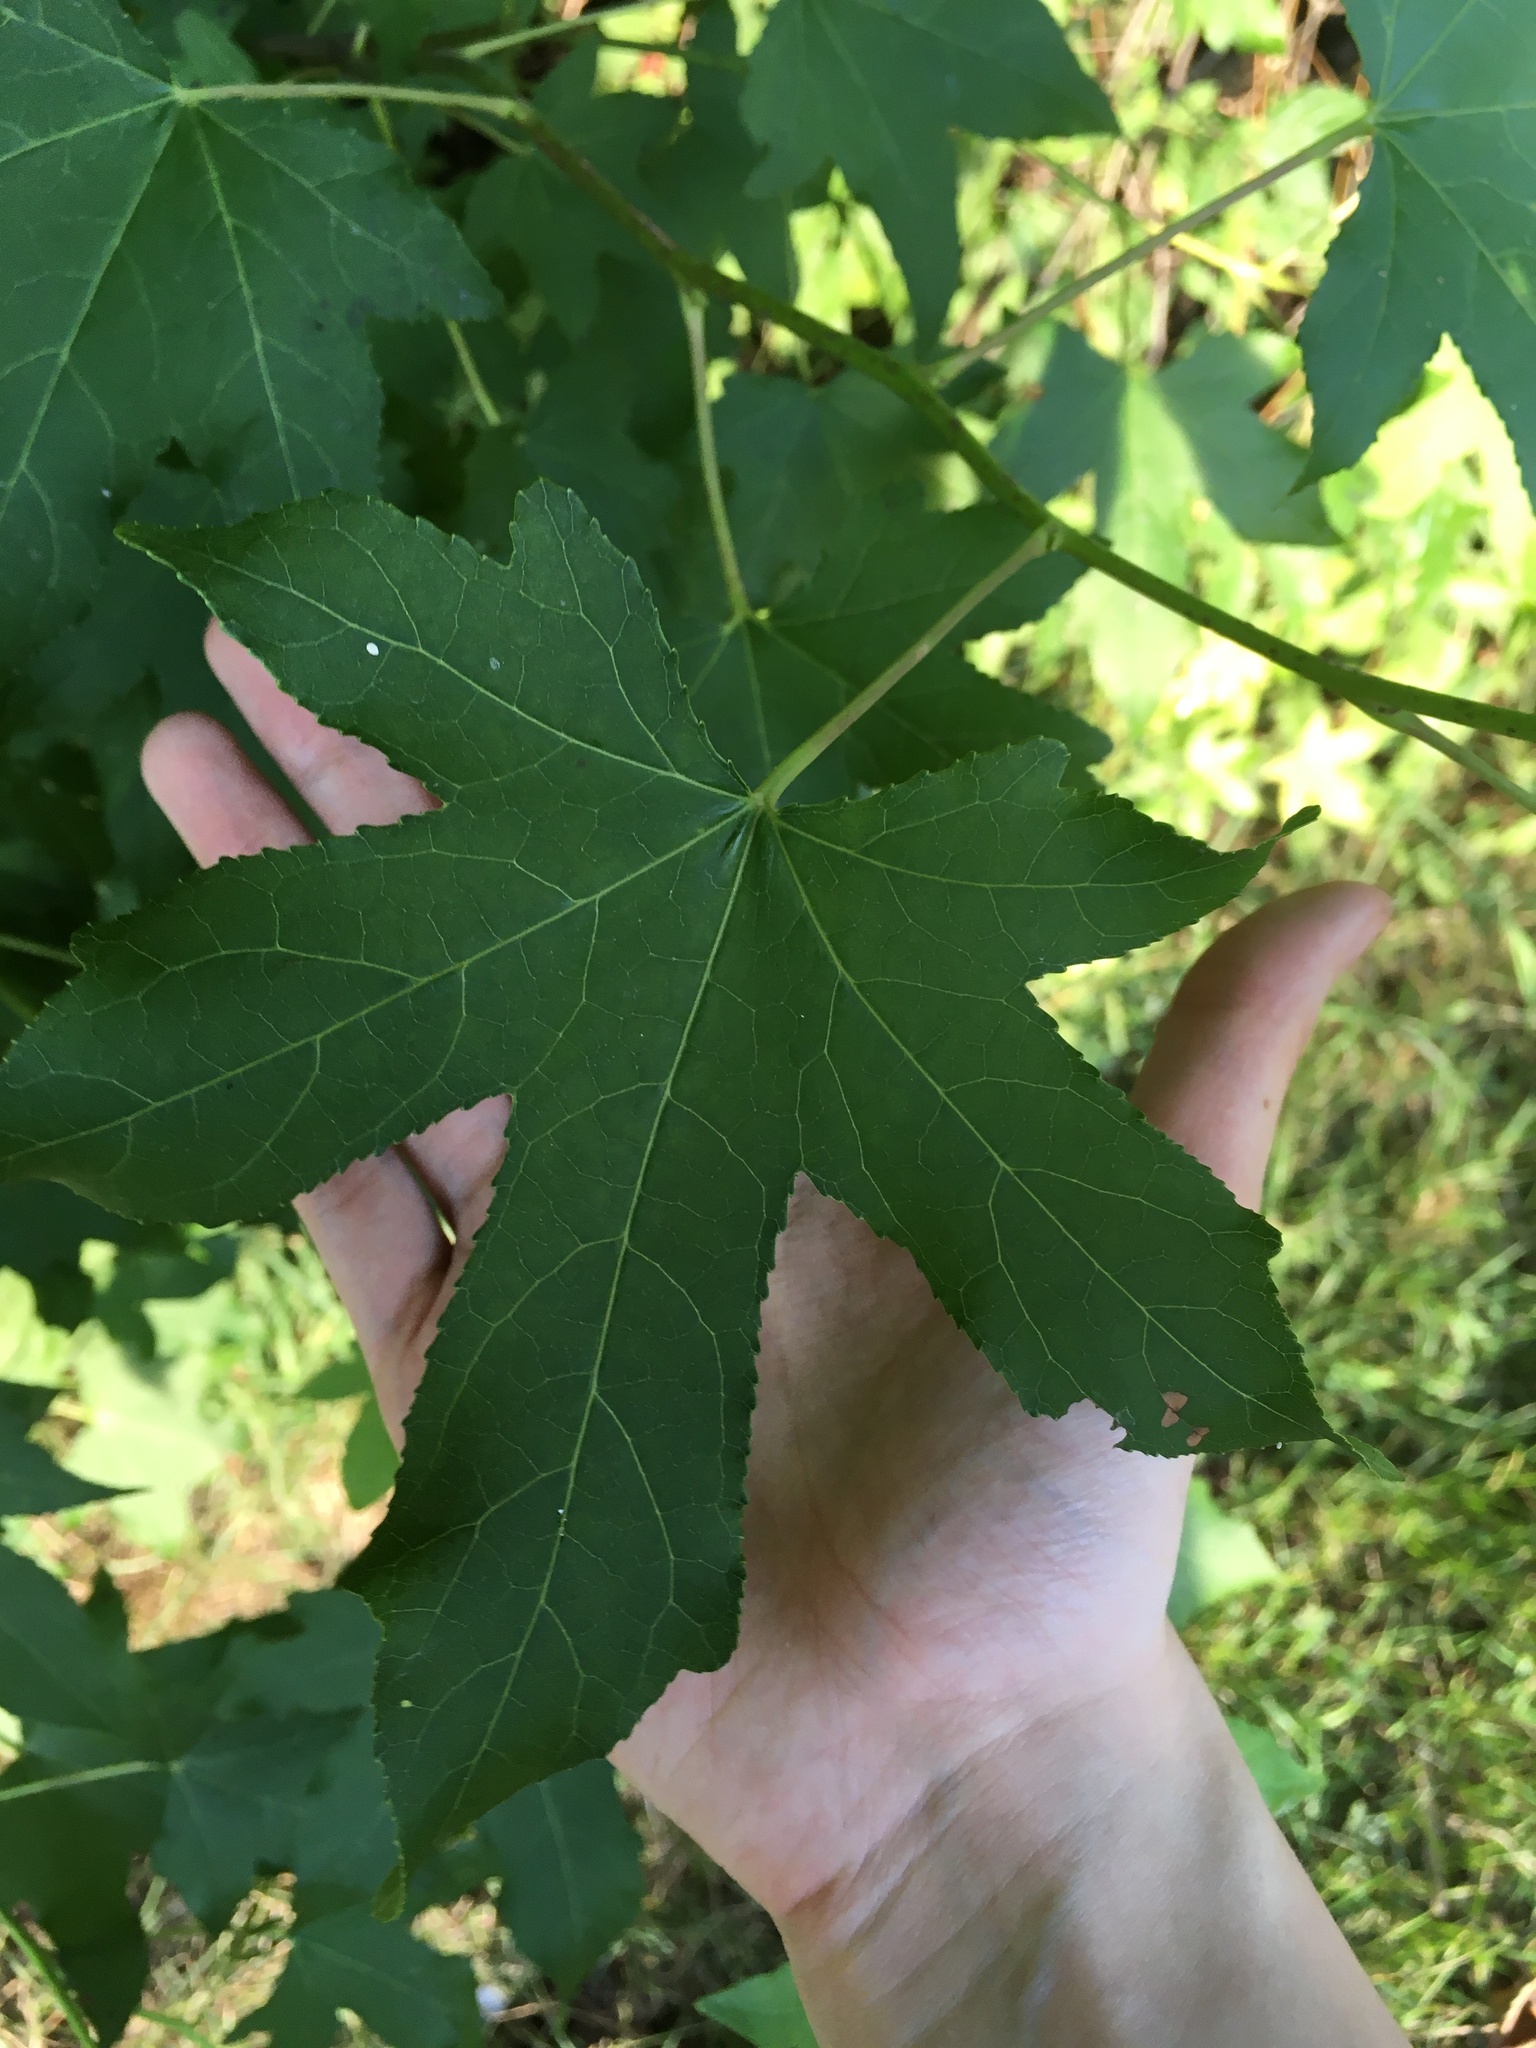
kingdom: Plantae
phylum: Tracheophyta
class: Magnoliopsida
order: Saxifragales
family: Altingiaceae
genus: Liquidambar
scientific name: Liquidambar styraciflua
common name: Sweet gum
